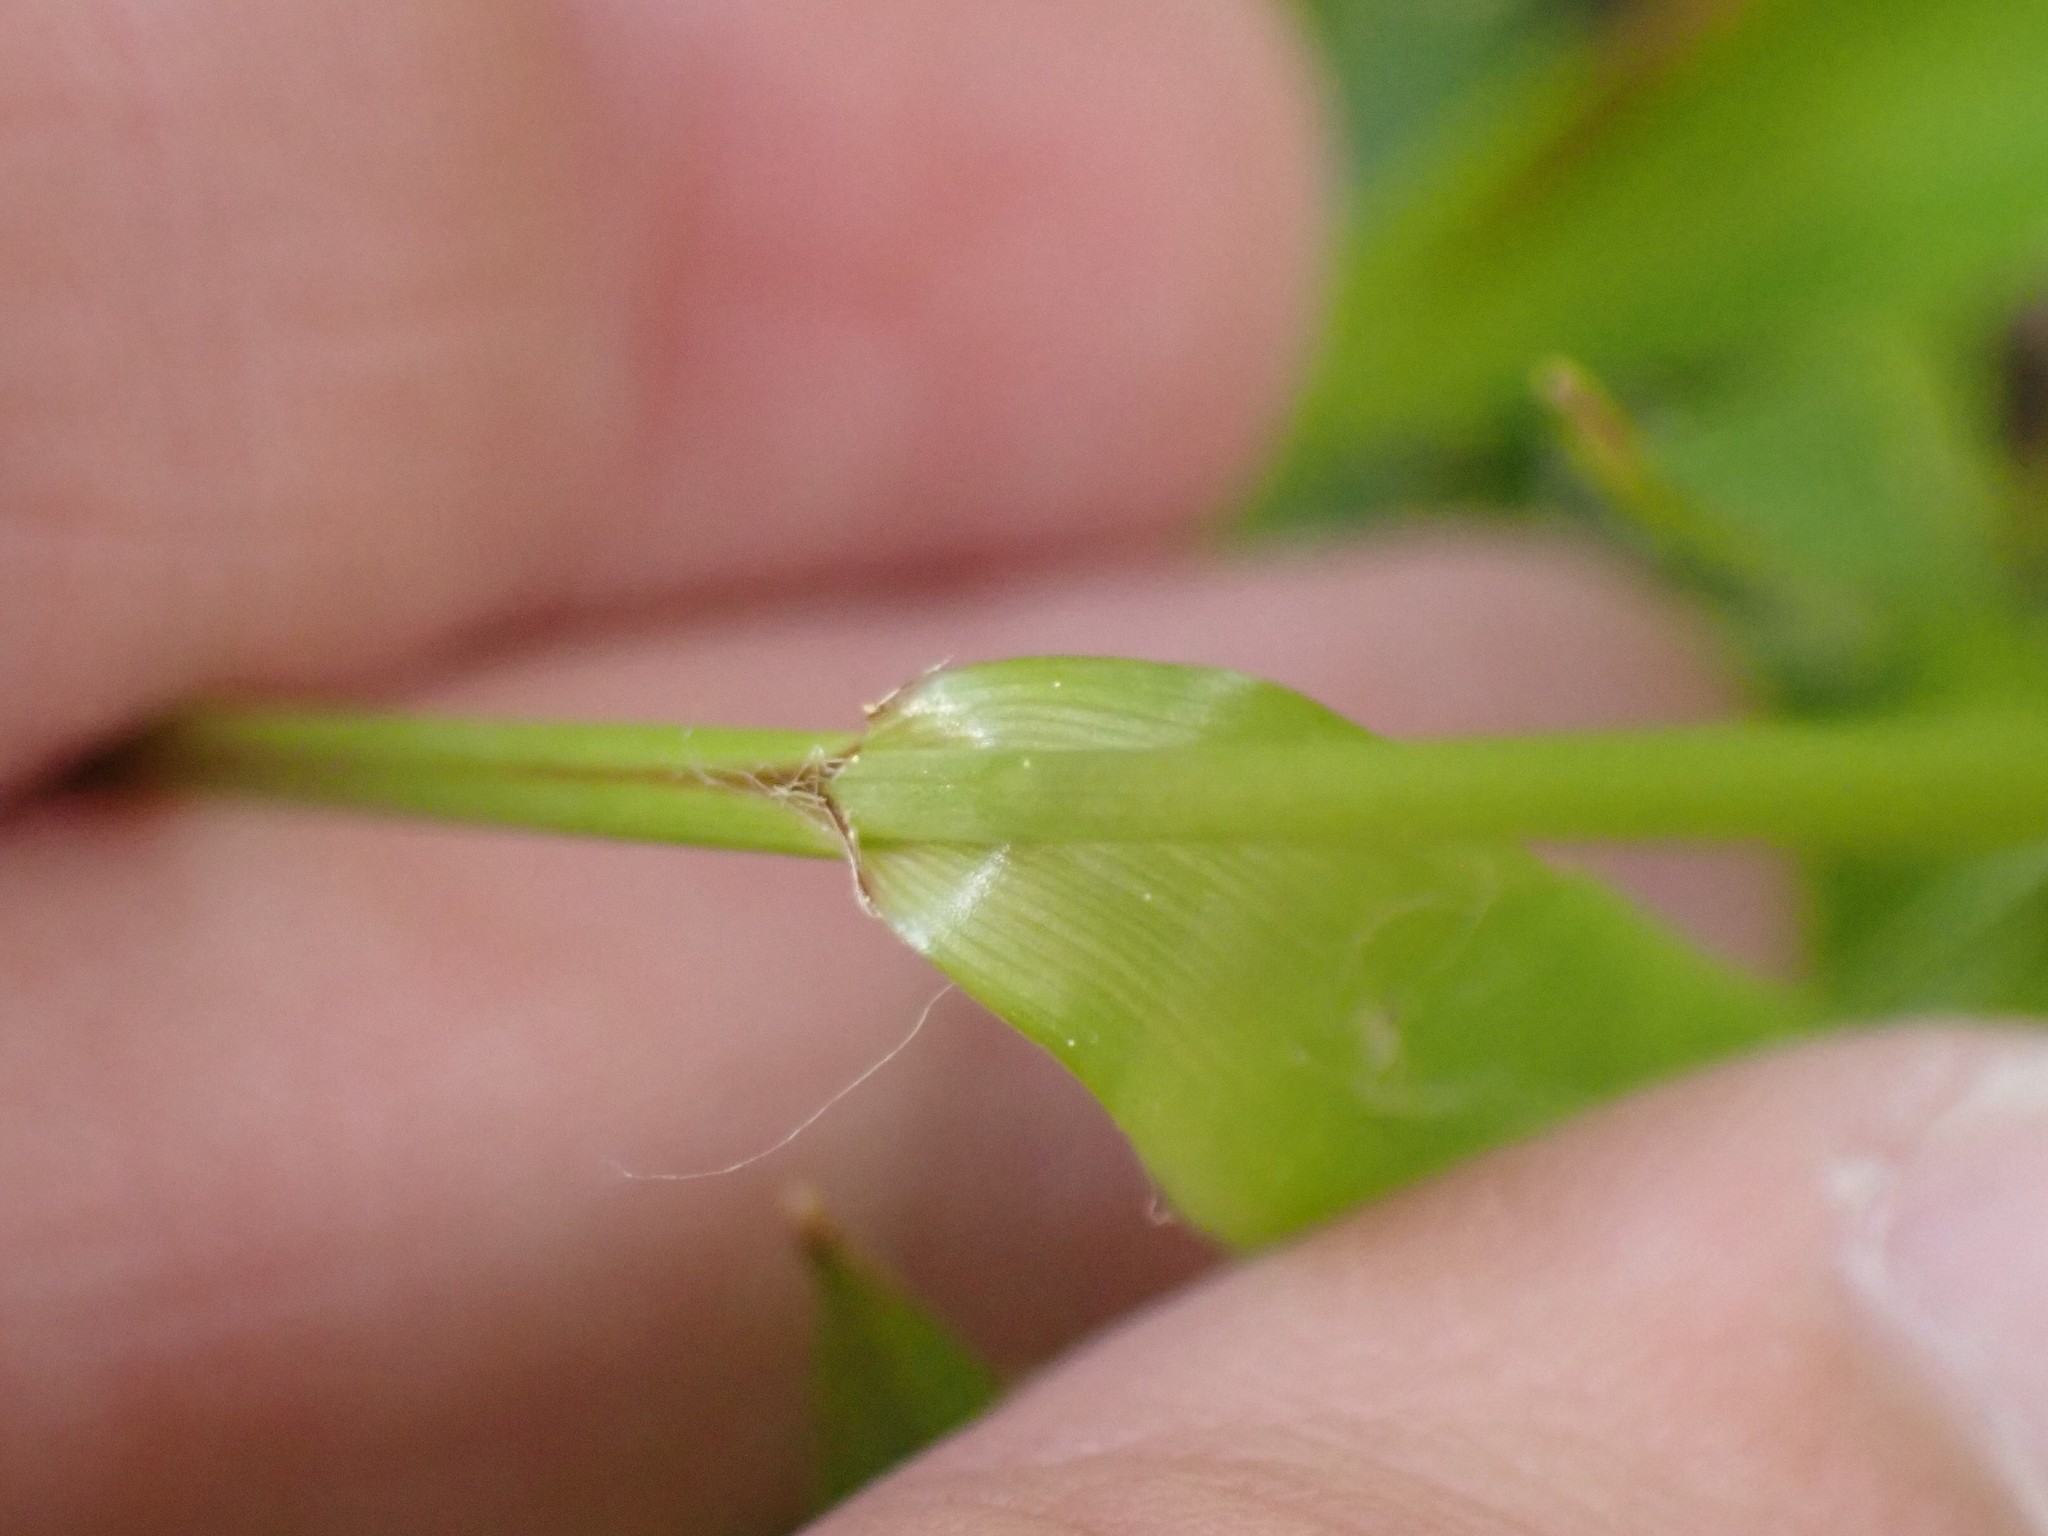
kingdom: Plantae
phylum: Tracheophyta
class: Liliopsida
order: Poales
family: Juncaceae
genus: Luzula
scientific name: Luzula parviflora
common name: Millet woodrush
